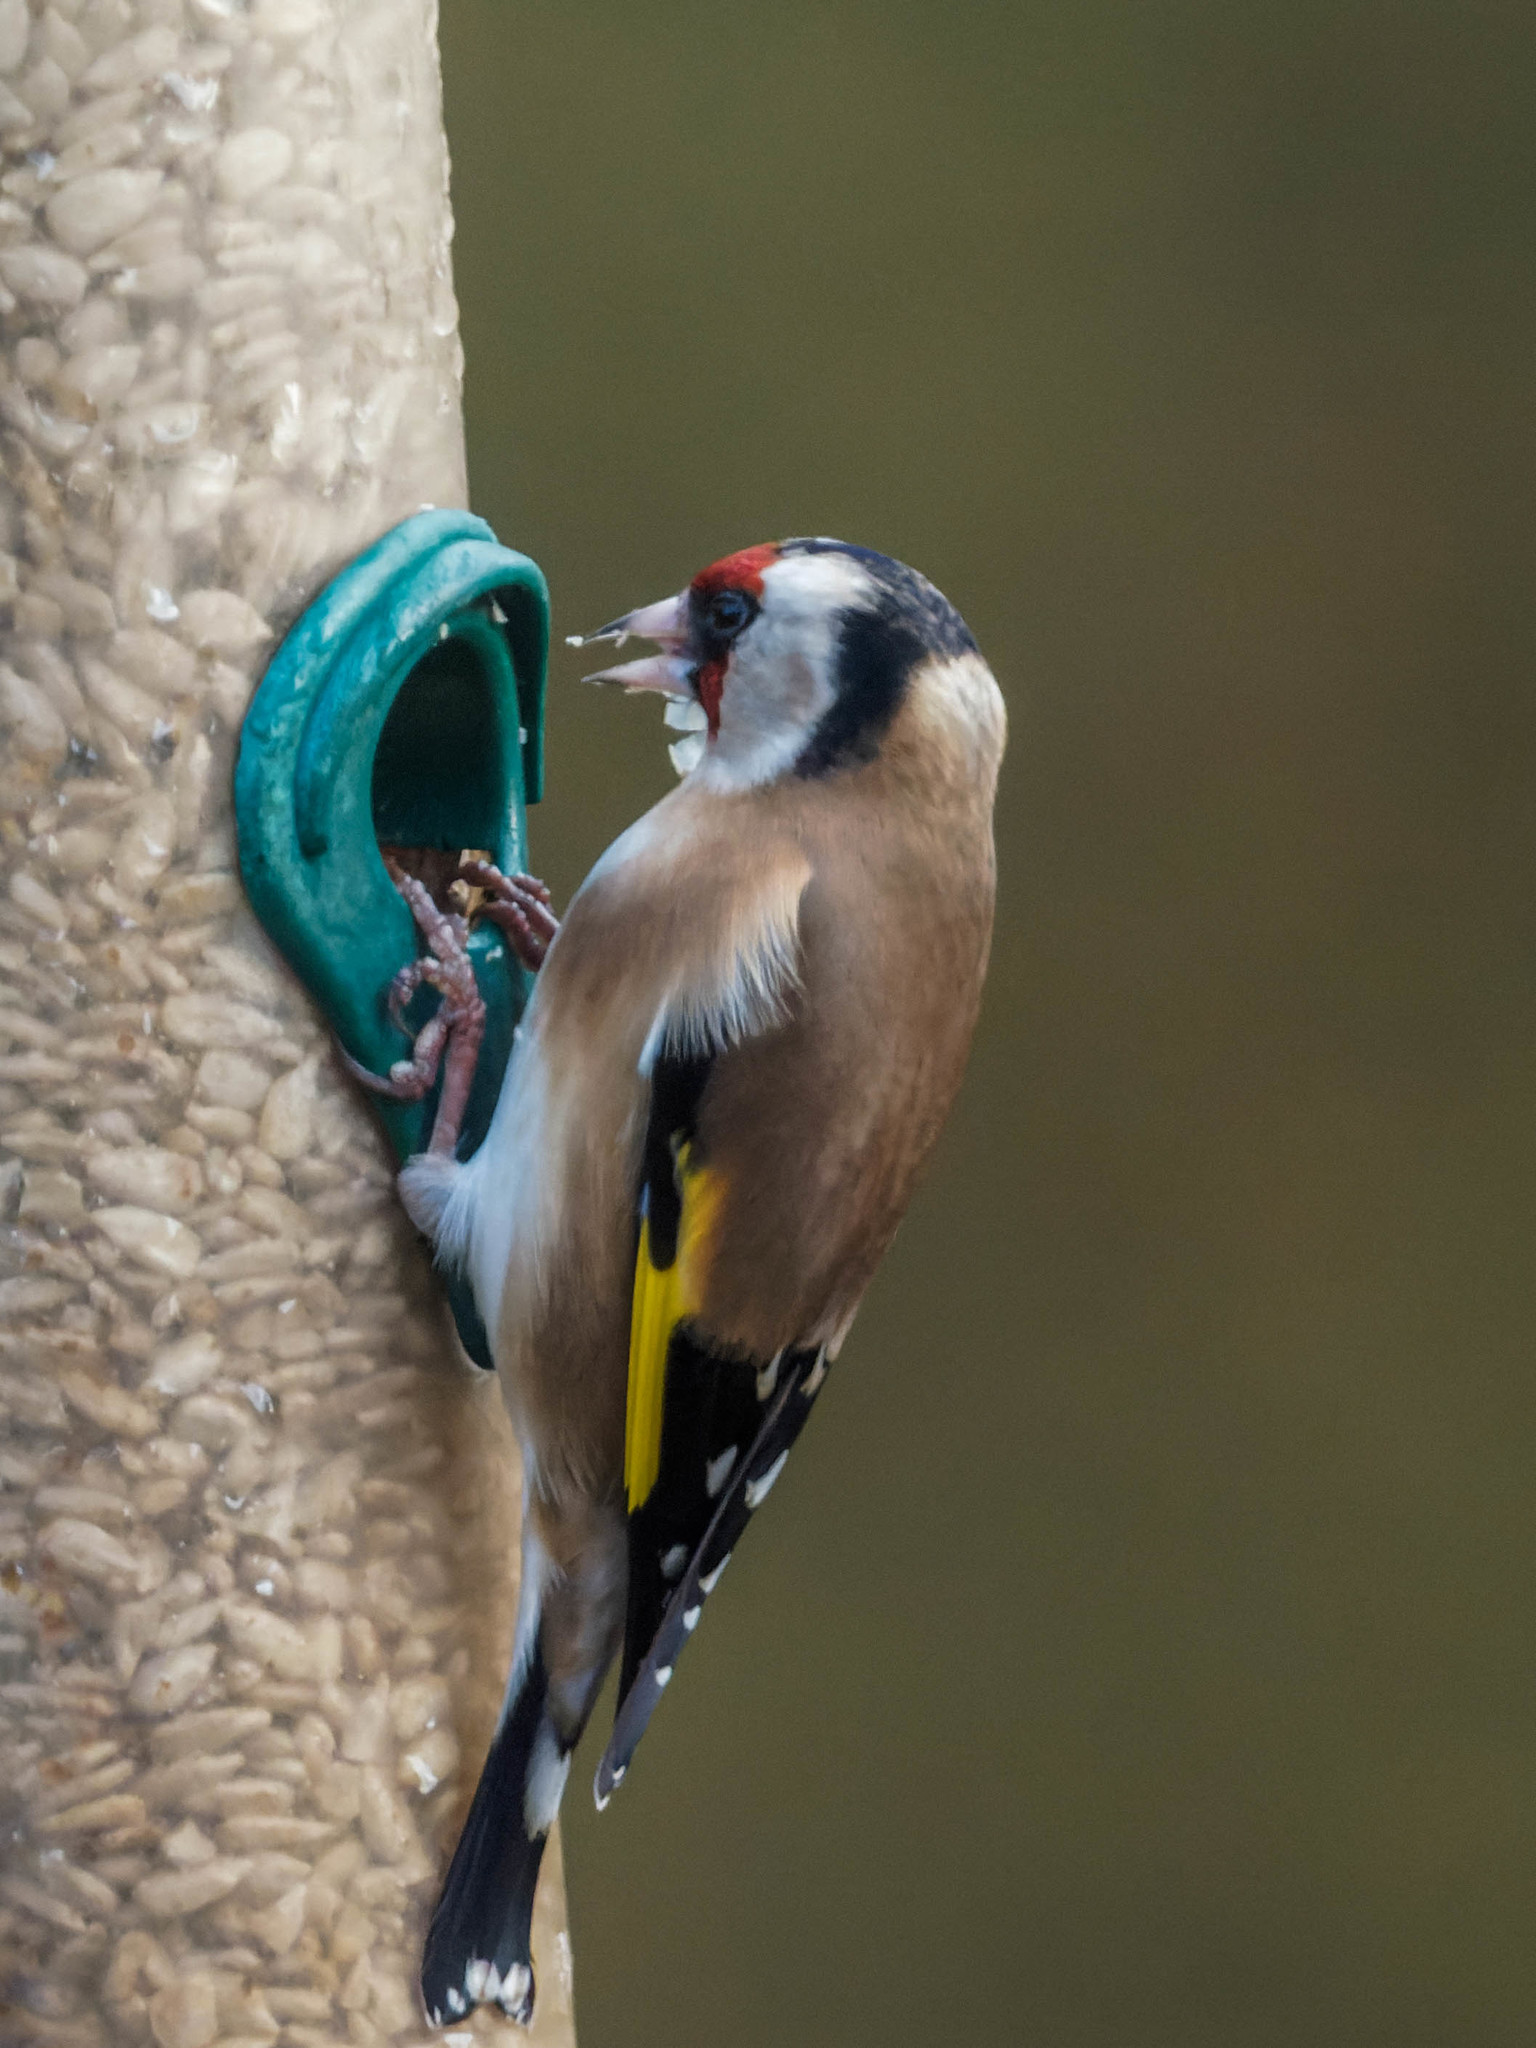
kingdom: Animalia
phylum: Chordata
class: Aves
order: Passeriformes
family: Fringillidae
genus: Carduelis
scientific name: Carduelis carduelis
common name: European goldfinch
